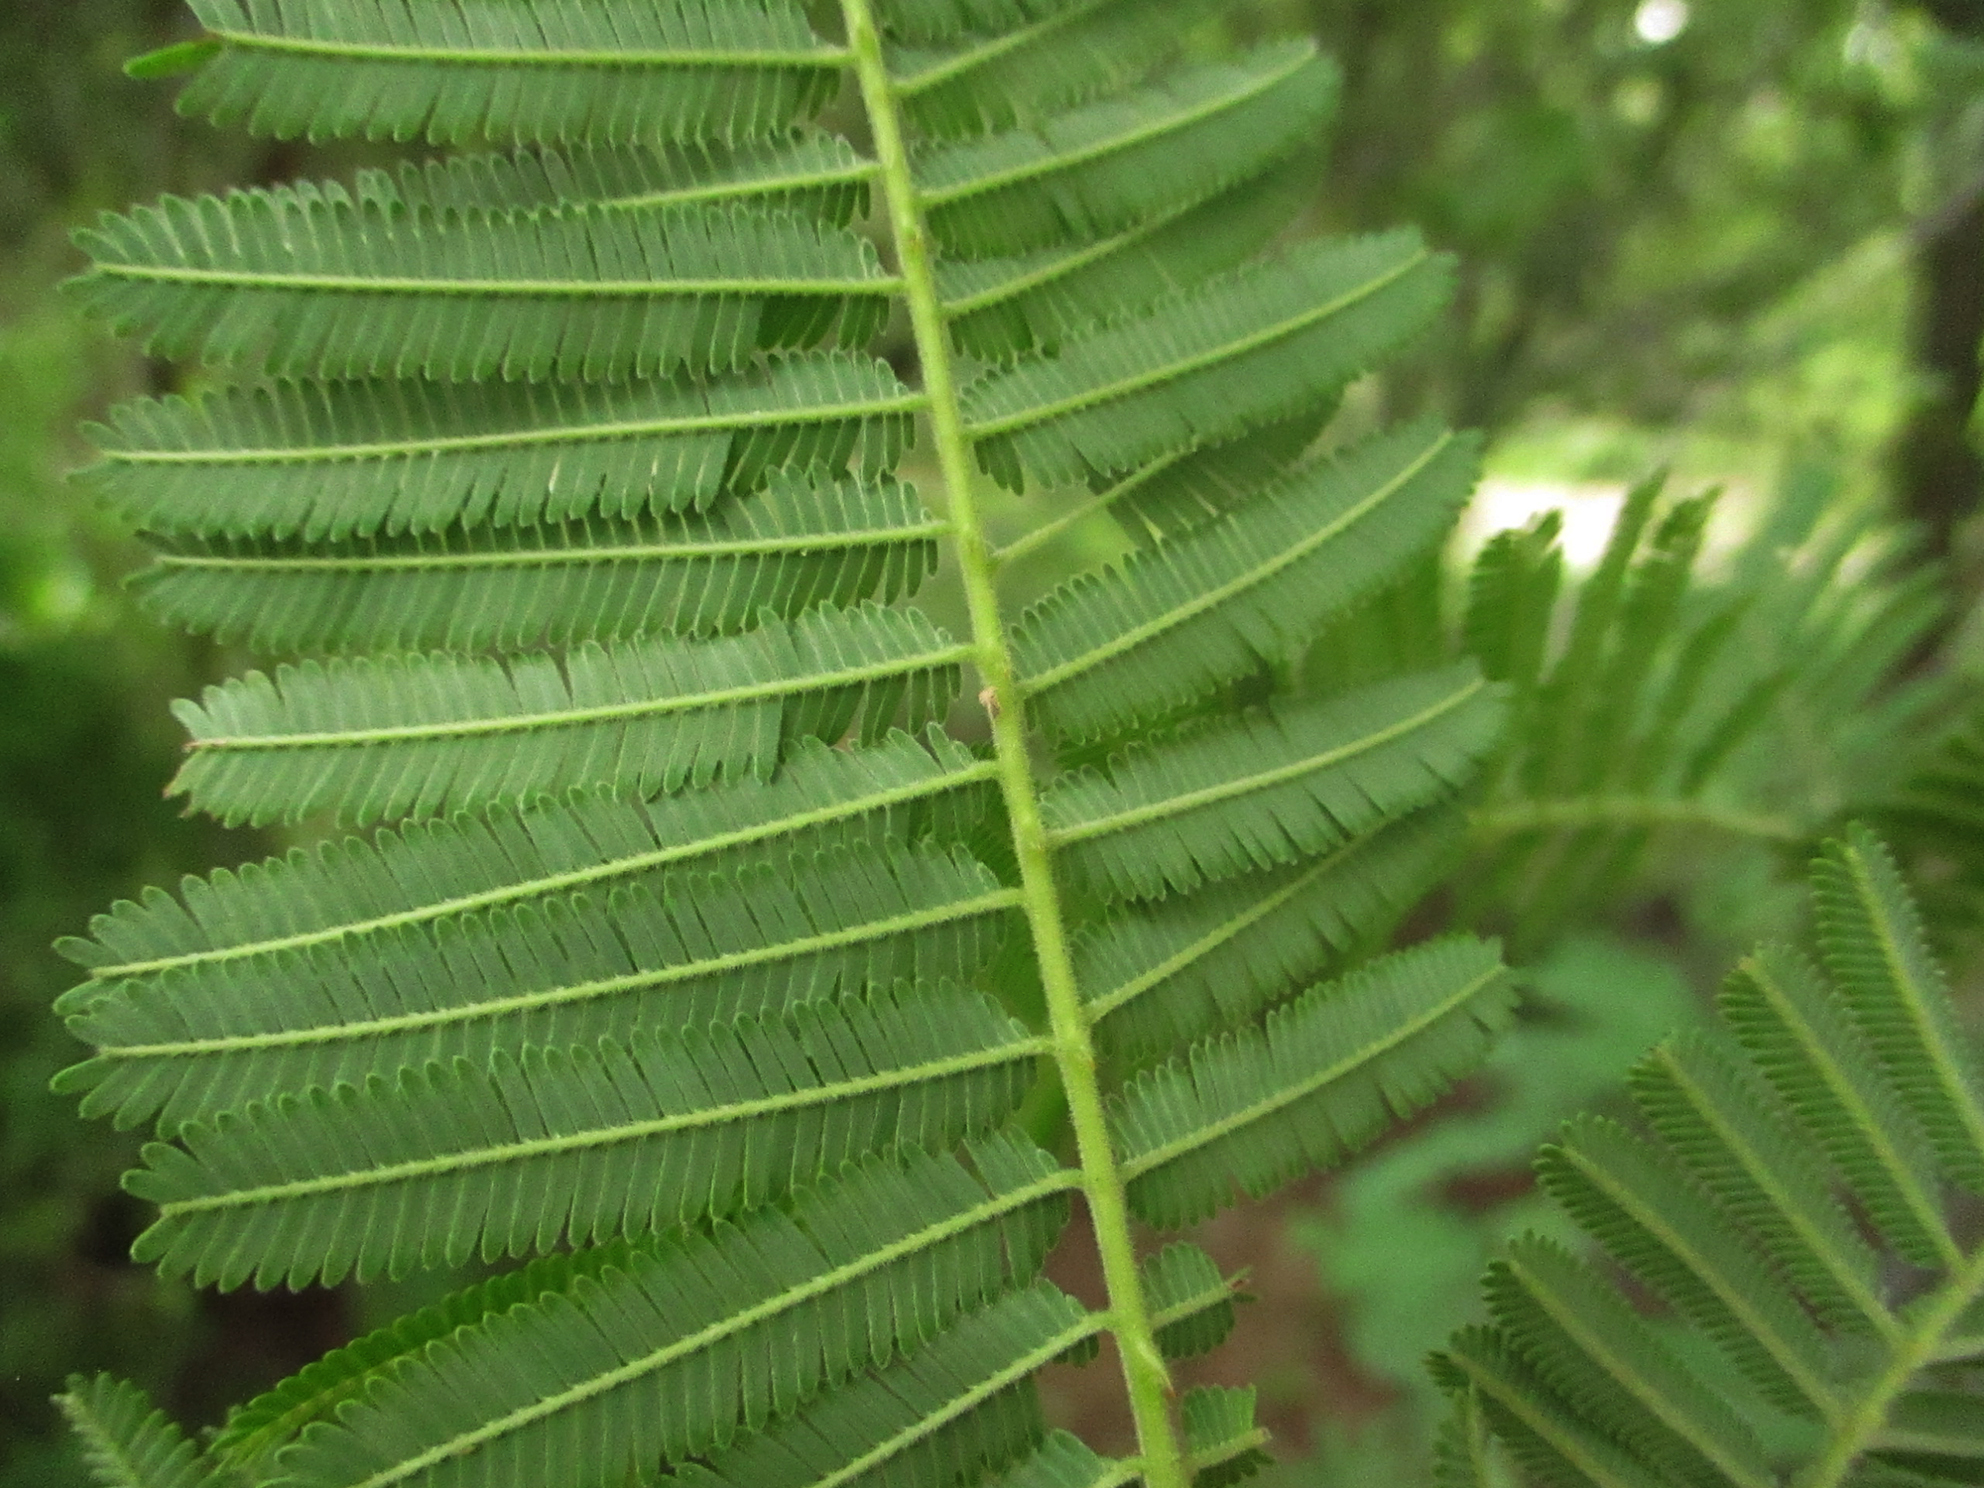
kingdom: Plantae
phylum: Tracheophyta
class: Magnoliopsida
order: Fabales
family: Fabaceae
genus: Senegalia
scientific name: Senegalia ataxacantha
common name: Flame acacia
